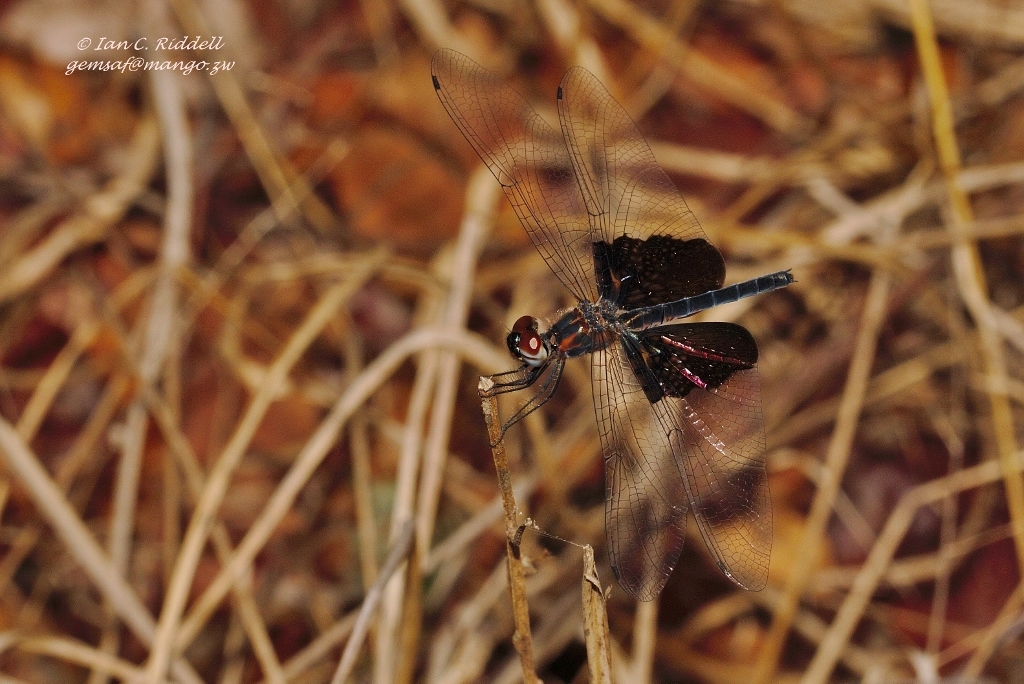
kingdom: Animalia
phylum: Arthropoda
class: Insecta
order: Odonata
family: Libellulidae
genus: Rhyothemis
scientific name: Rhyothemis semihyalina
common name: Phantom flutterer
